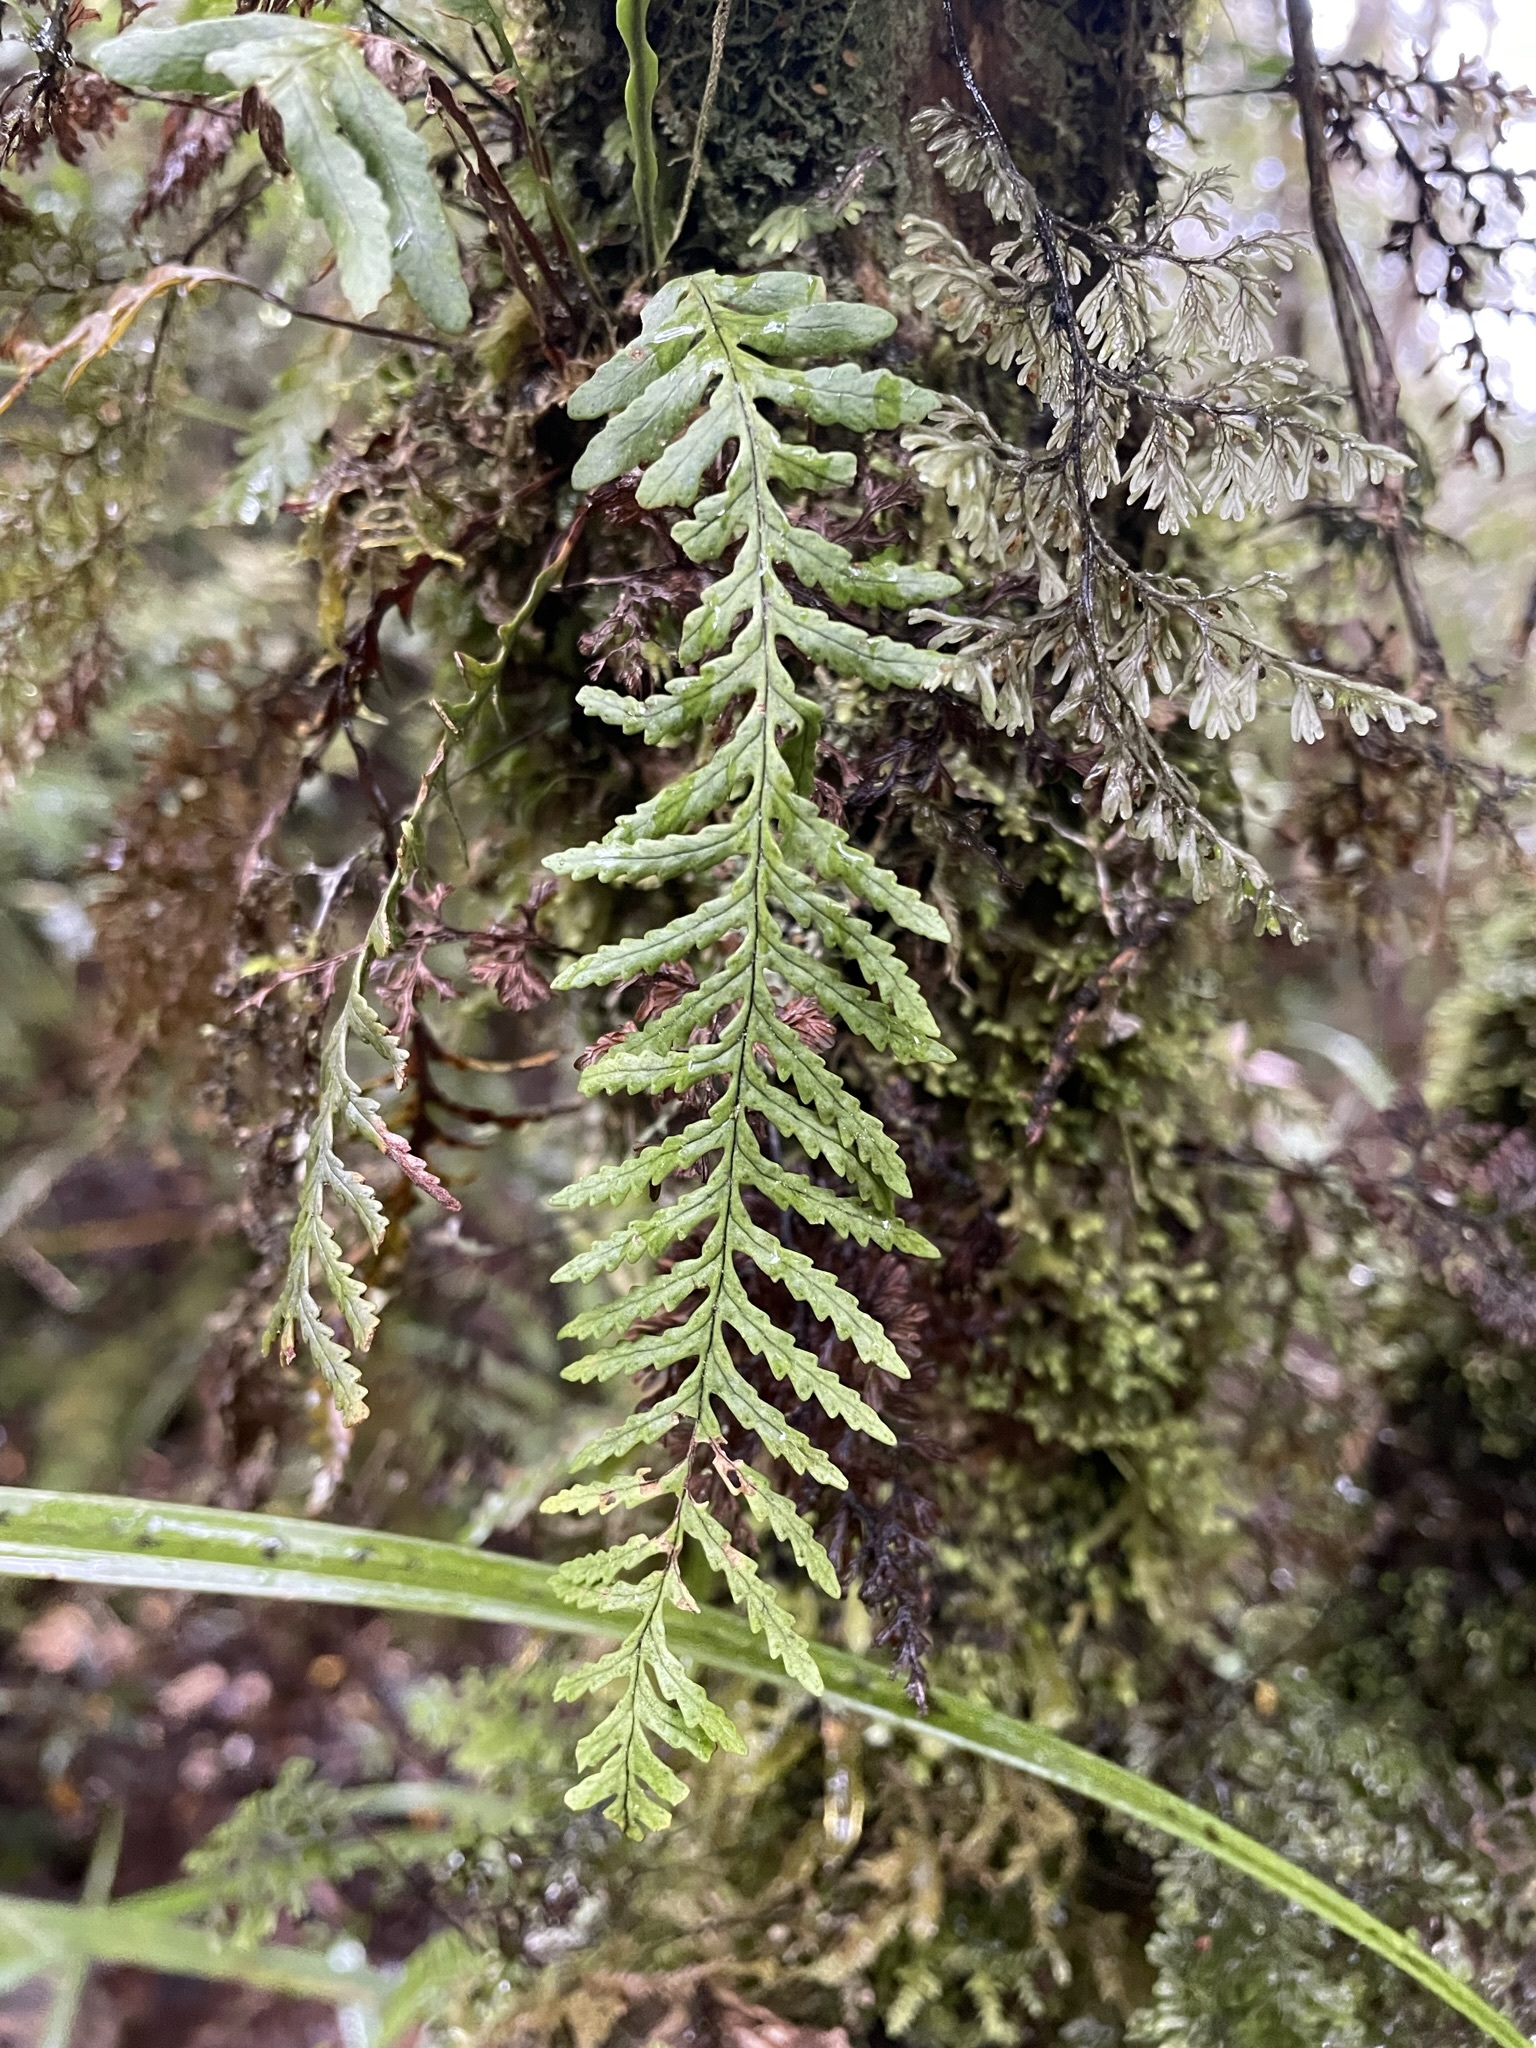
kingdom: Plantae
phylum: Tracheophyta
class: Polypodiopsida
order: Polypodiales
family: Polypodiaceae
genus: Notogrammitis
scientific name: Notogrammitis heterophylla
